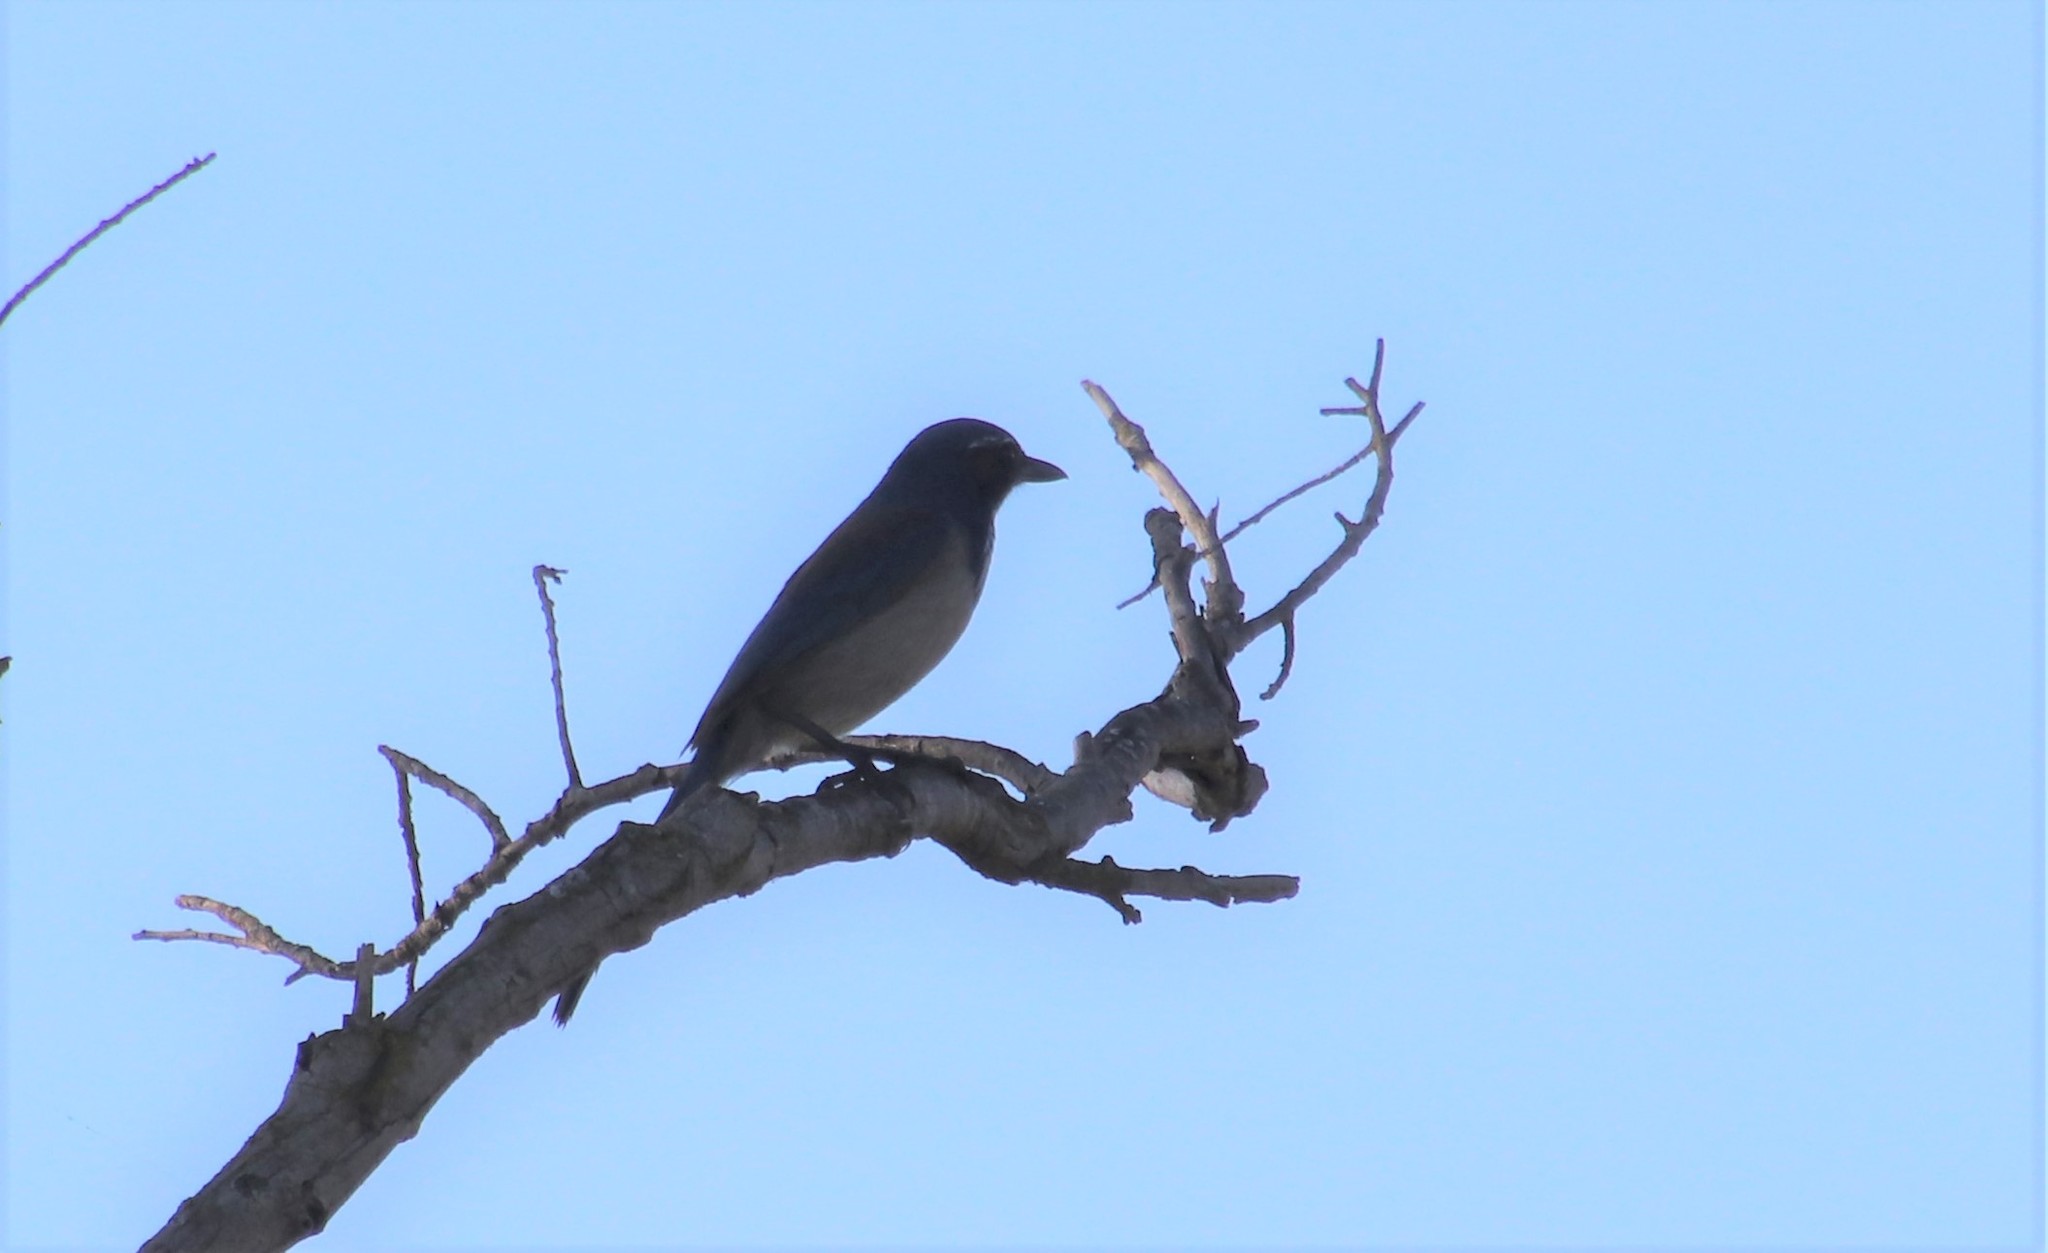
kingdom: Animalia
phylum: Chordata
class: Aves
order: Passeriformes
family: Corvidae
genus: Aphelocoma
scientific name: Aphelocoma californica
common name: California scrub-jay
